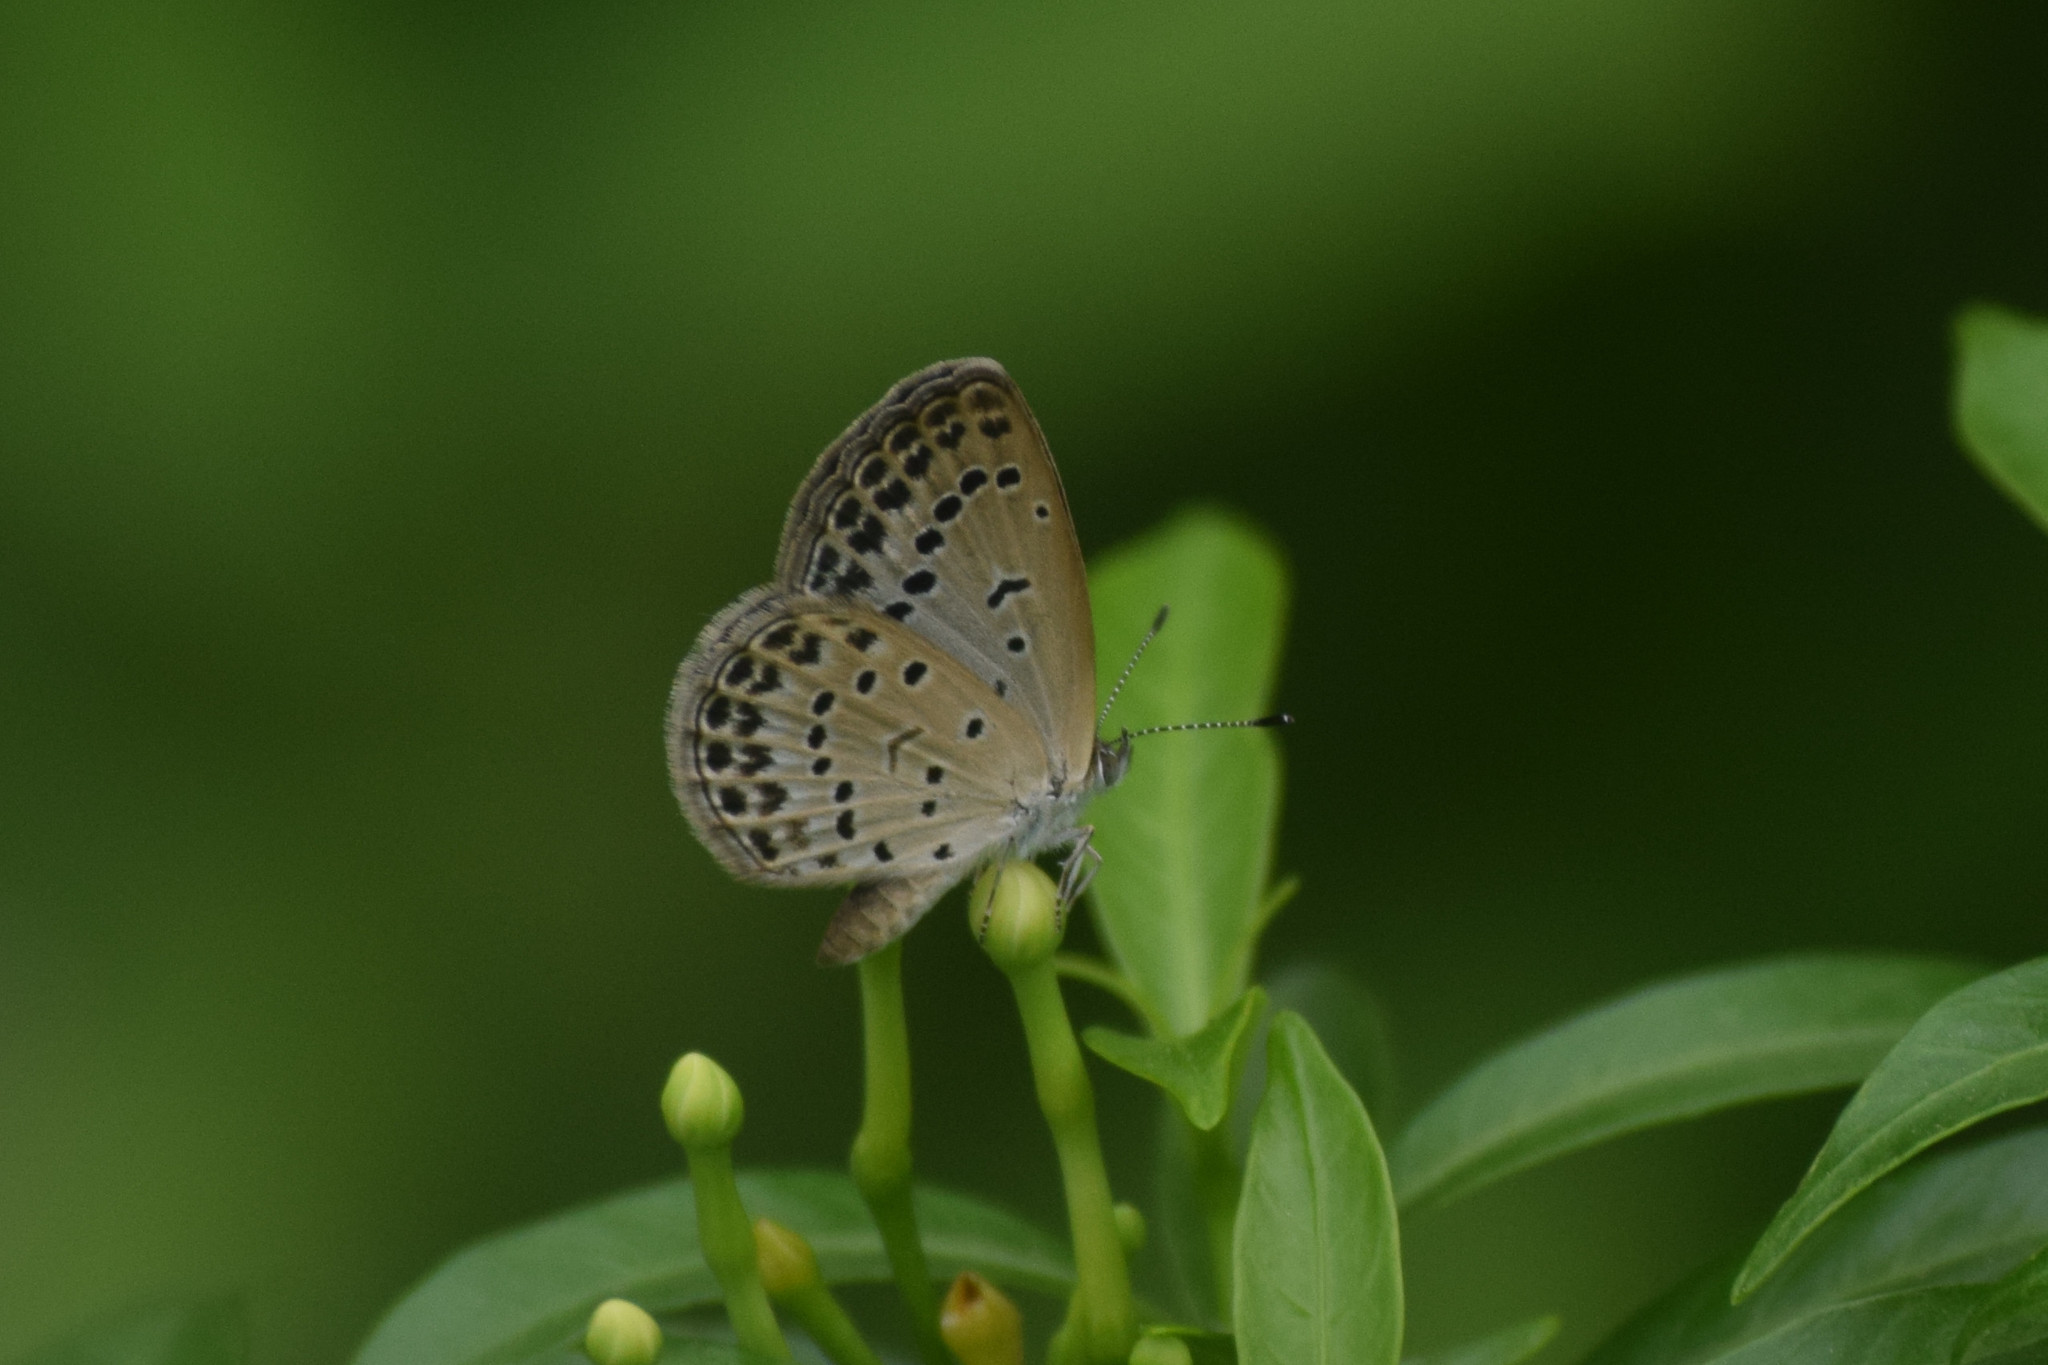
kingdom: Animalia
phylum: Arthropoda
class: Insecta
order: Lepidoptera
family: Lycaenidae
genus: Pseudozizeeria
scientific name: Pseudozizeeria maha
